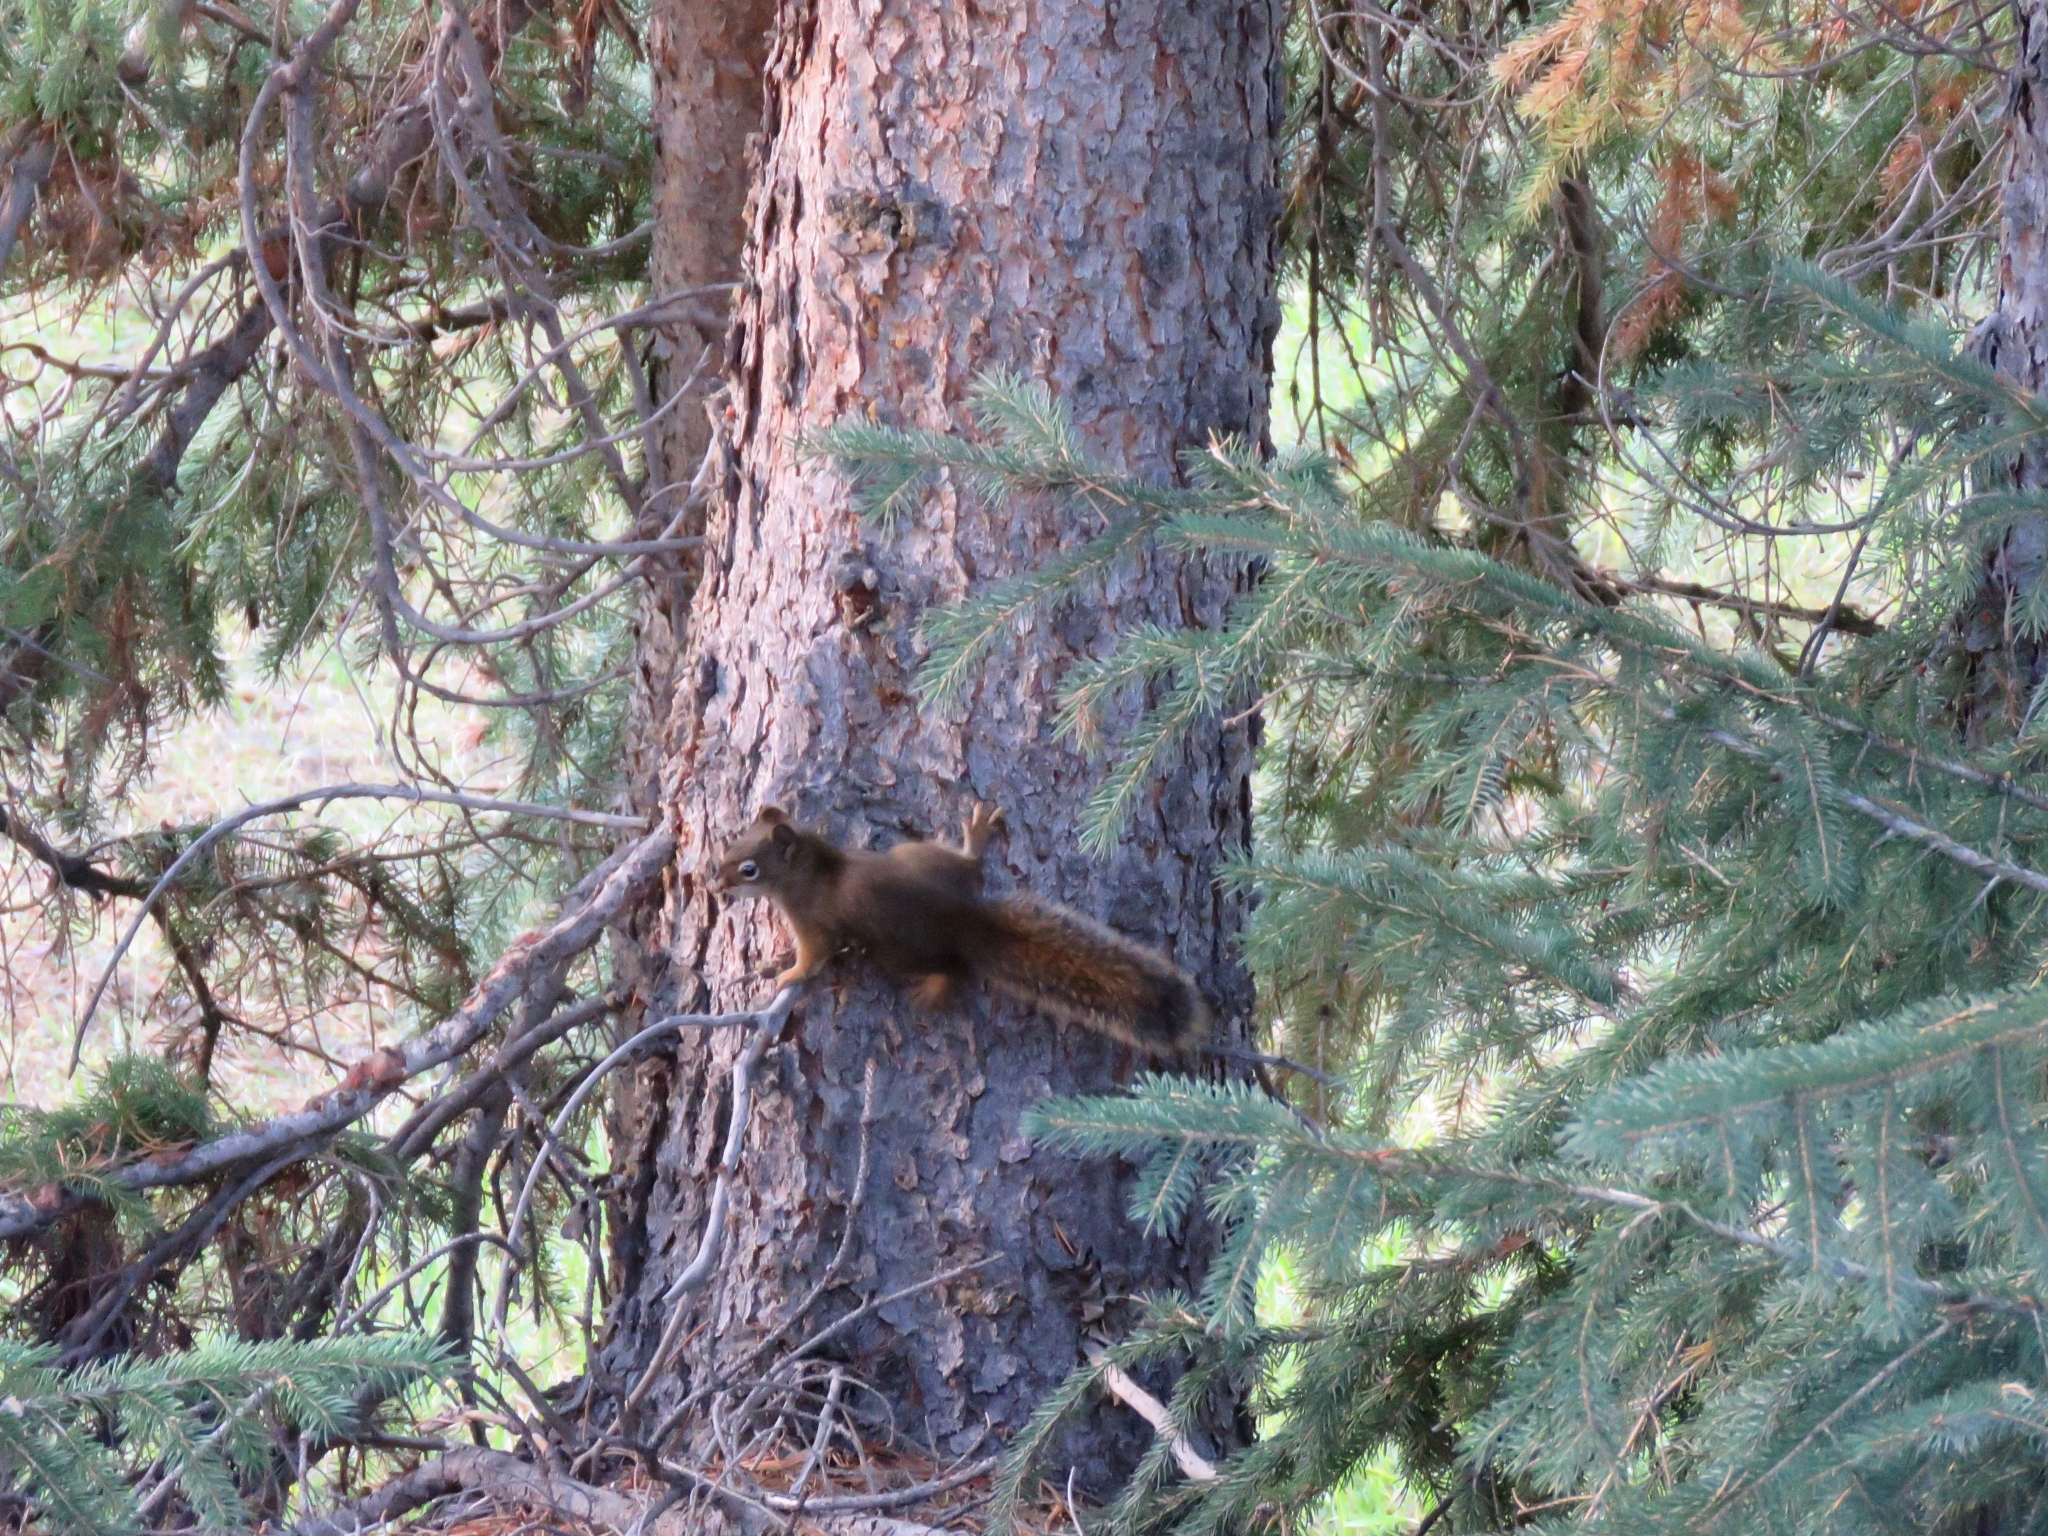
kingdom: Animalia
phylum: Chordata
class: Mammalia
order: Rodentia
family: Sciuridae
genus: Tamiasciurus
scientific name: Tamiasciurus hudsonicus
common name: Red squirrel
